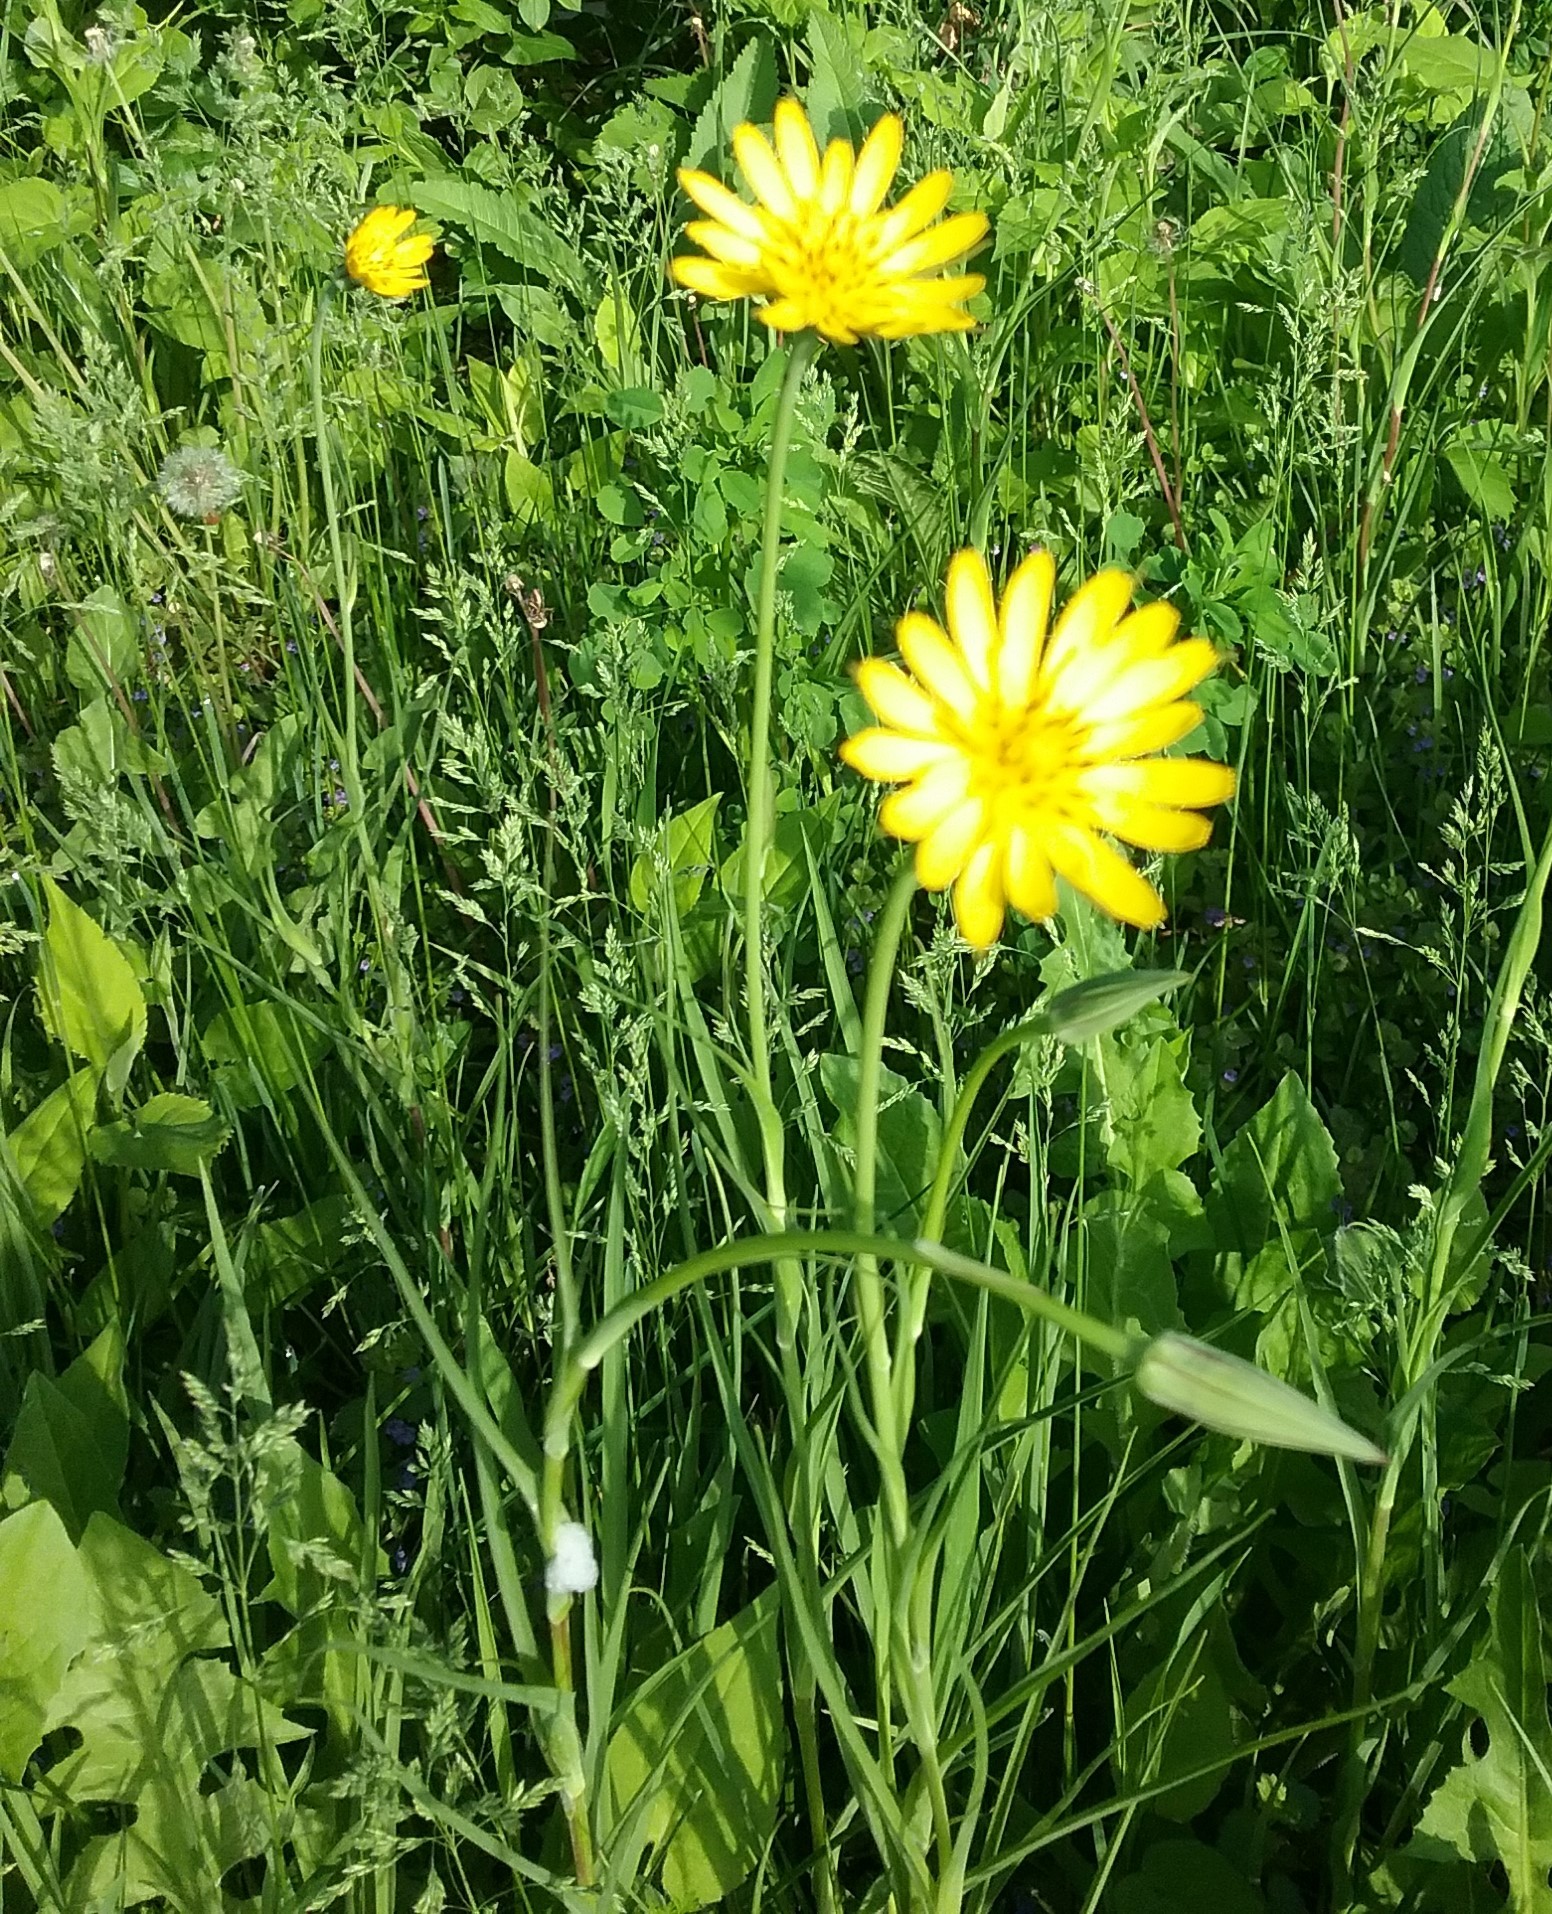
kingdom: Plantae
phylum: Tracheophyta
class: Magnoliopsida
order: Asterales
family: Asteraceae
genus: Tragopogon
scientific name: Tragopogon pratensis
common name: Goat's-beard
